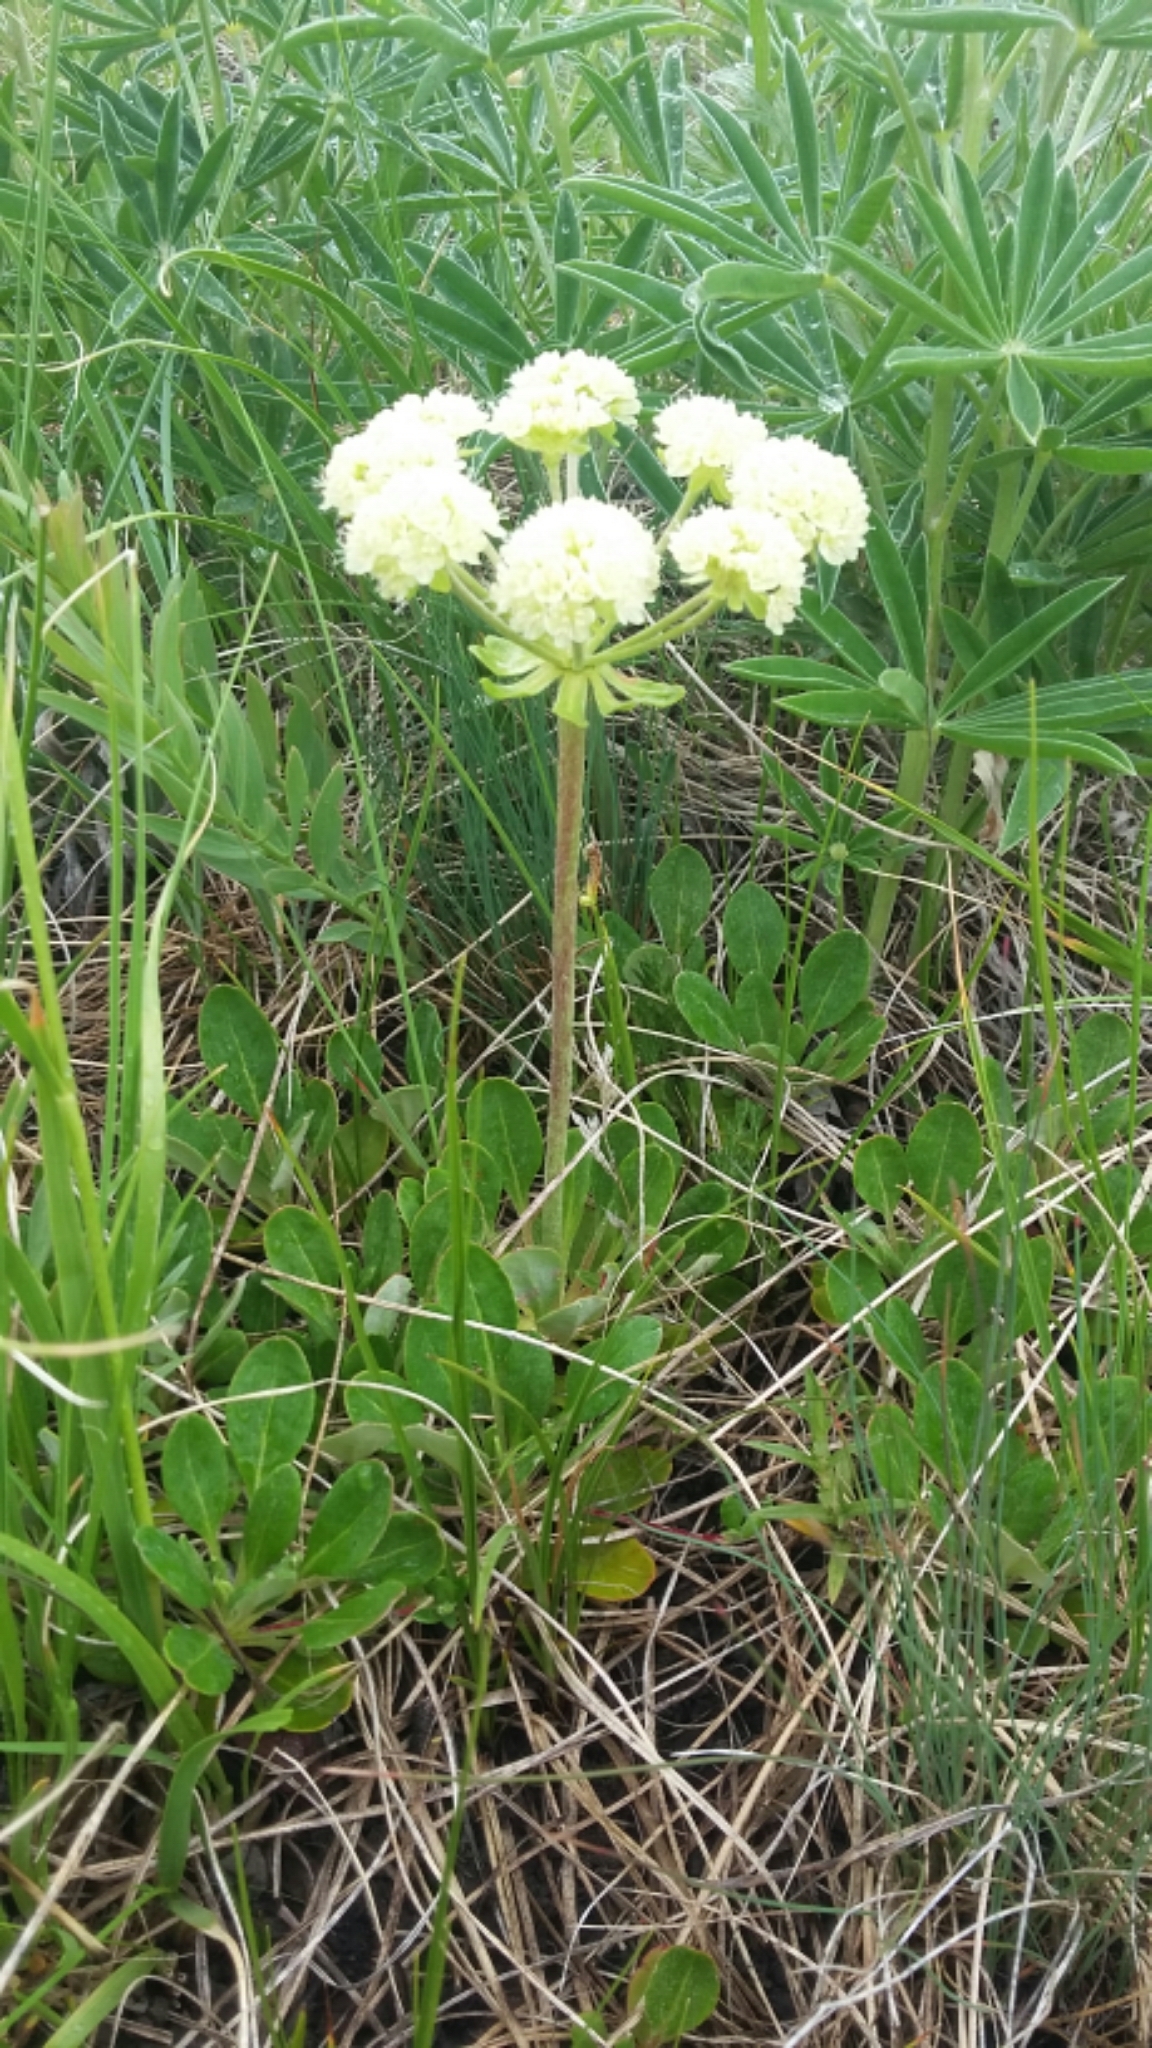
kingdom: Plantae
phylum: Tracheophyta
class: Magnoliopsida
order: Caryophyllales
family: Polygonaceae
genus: Eriogonum
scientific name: Eriogonum umbellatum
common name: Sulfur-buckwheat
